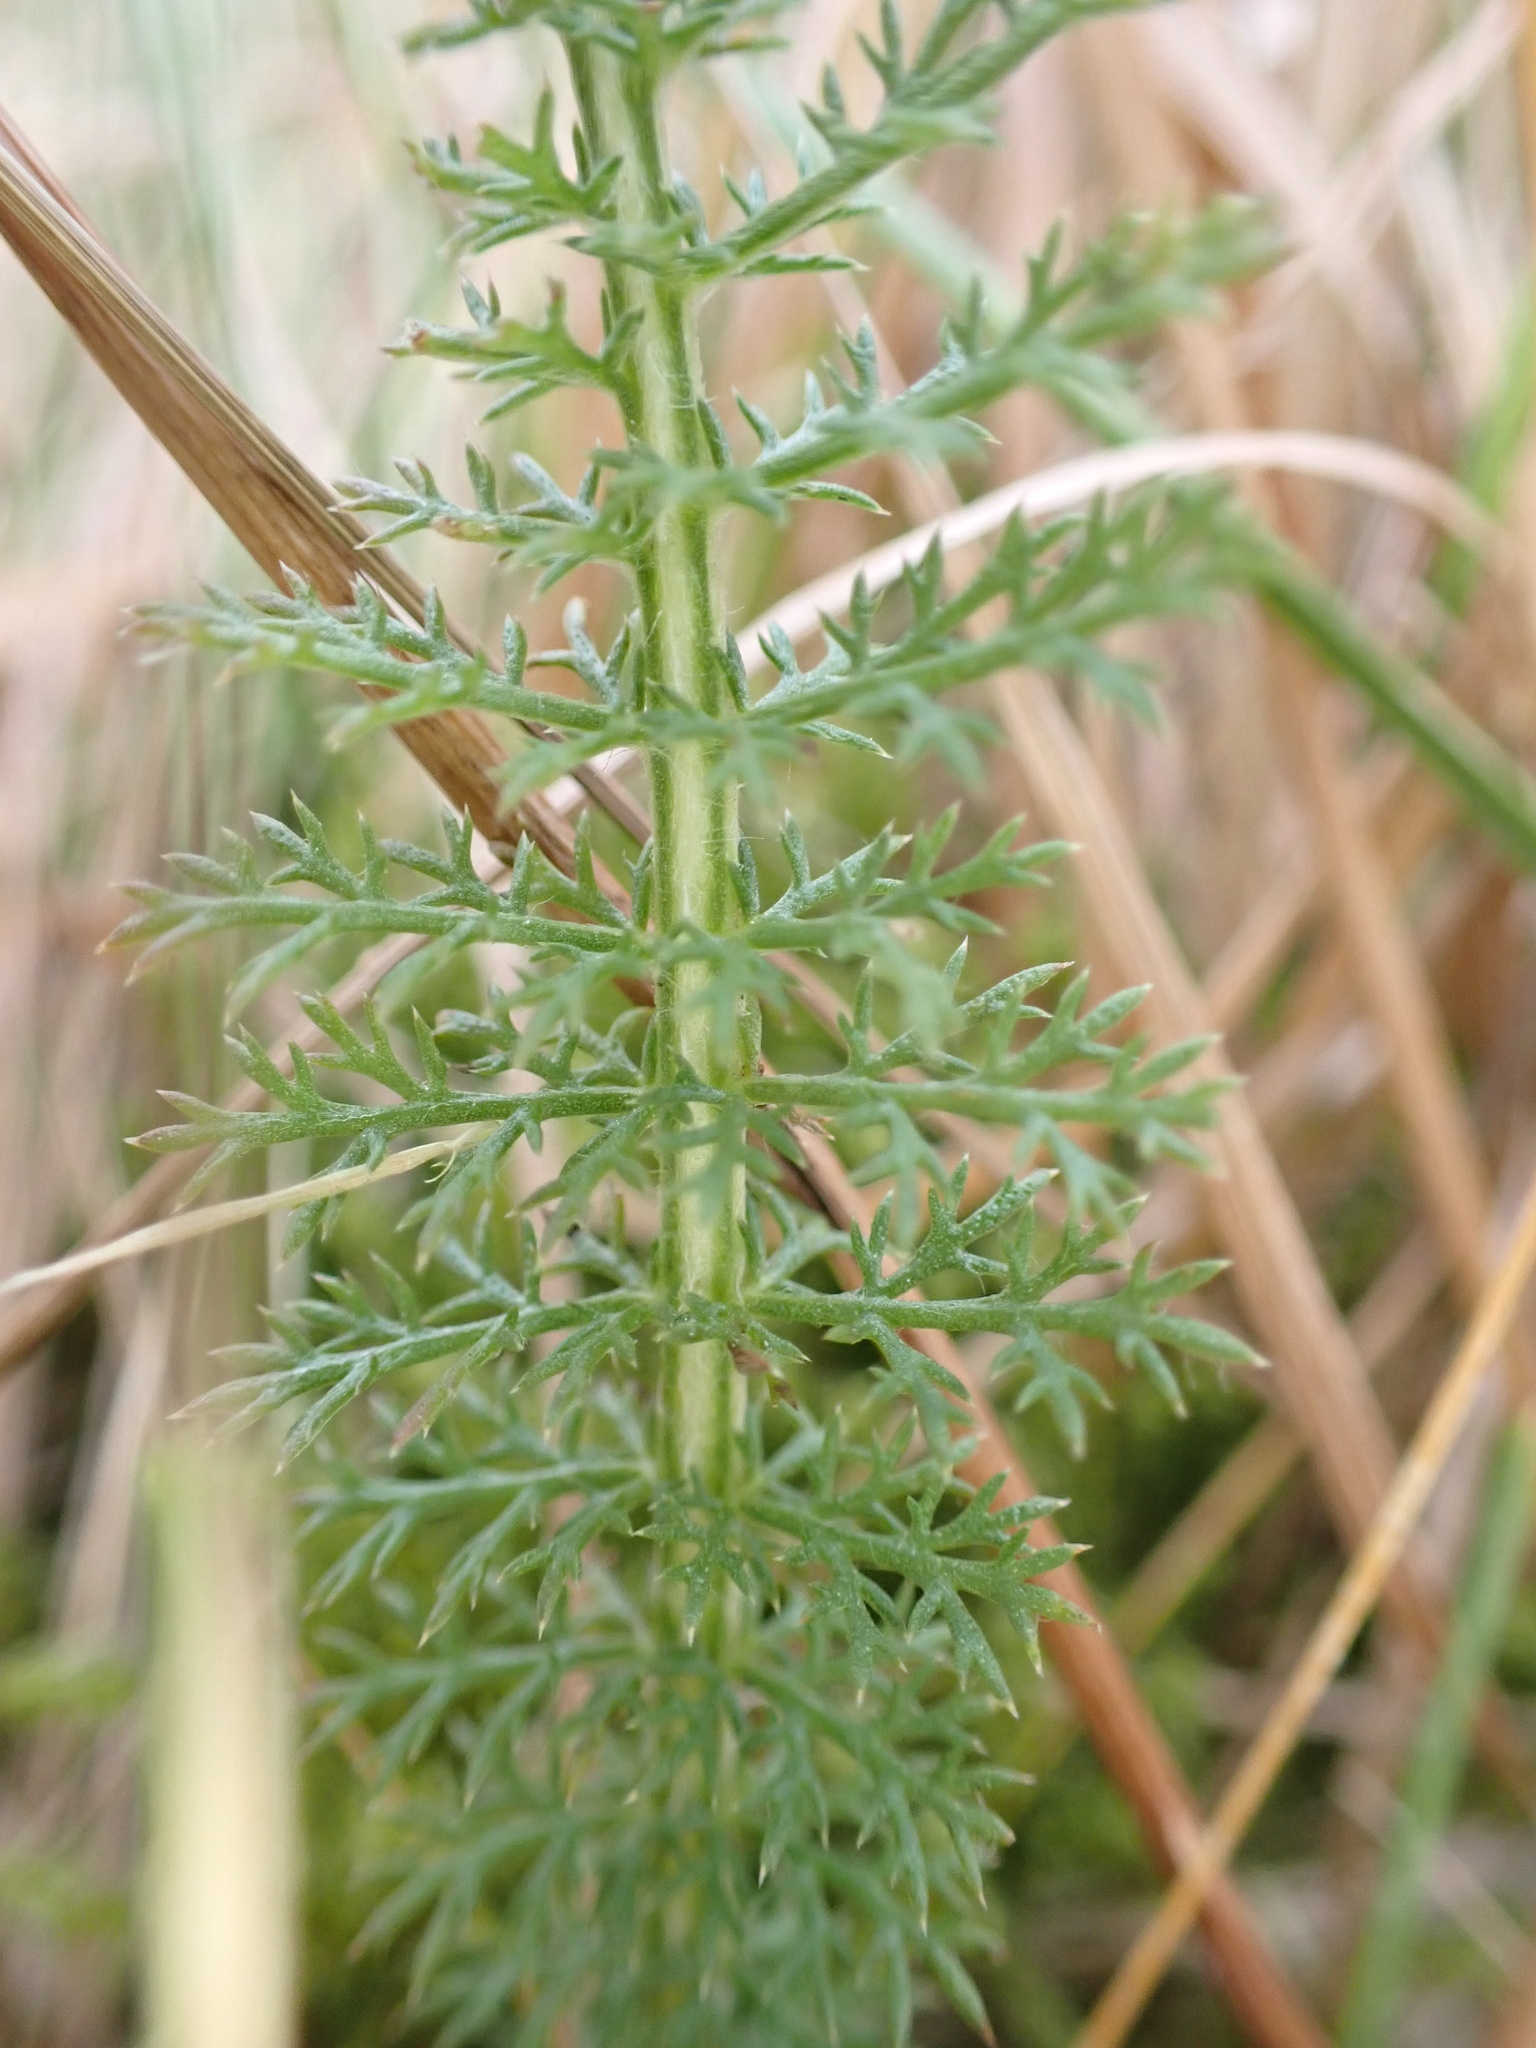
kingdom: Plantae
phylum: Tracheophyta
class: Magnoliopsida
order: Asterales
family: Asteraceae
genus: Achillea
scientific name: Achillea millefolium
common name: Yarrow
